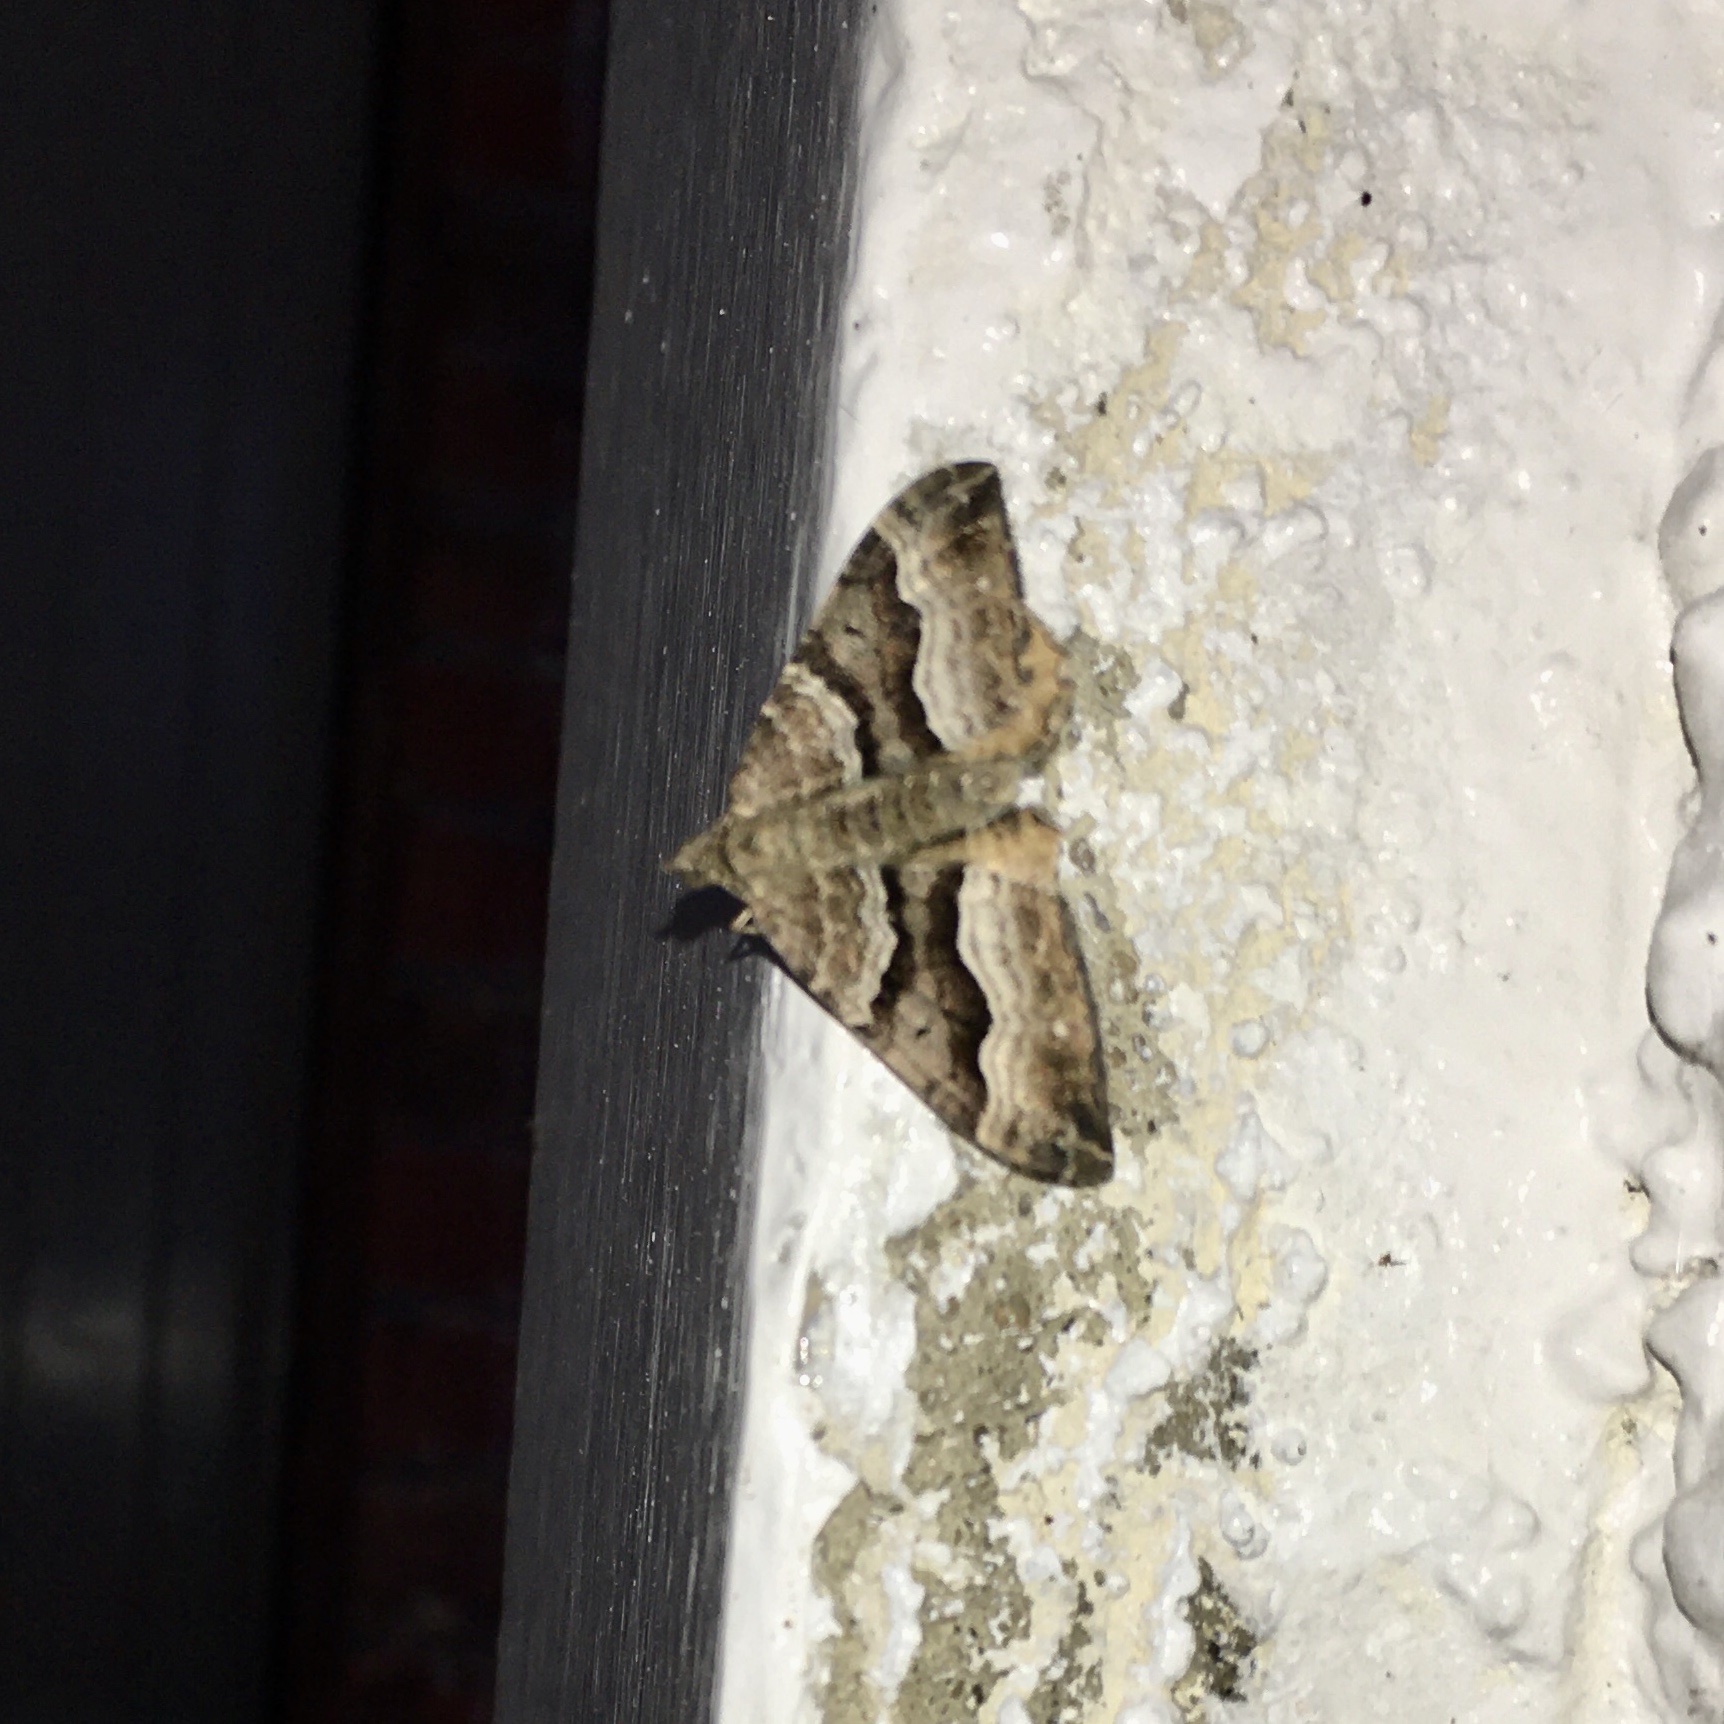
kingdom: Animalia
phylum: Arthropoda
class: Insecta
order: Lepidoptera
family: Geometridae
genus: Hydriomena
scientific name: Hydriomena deltoidata
